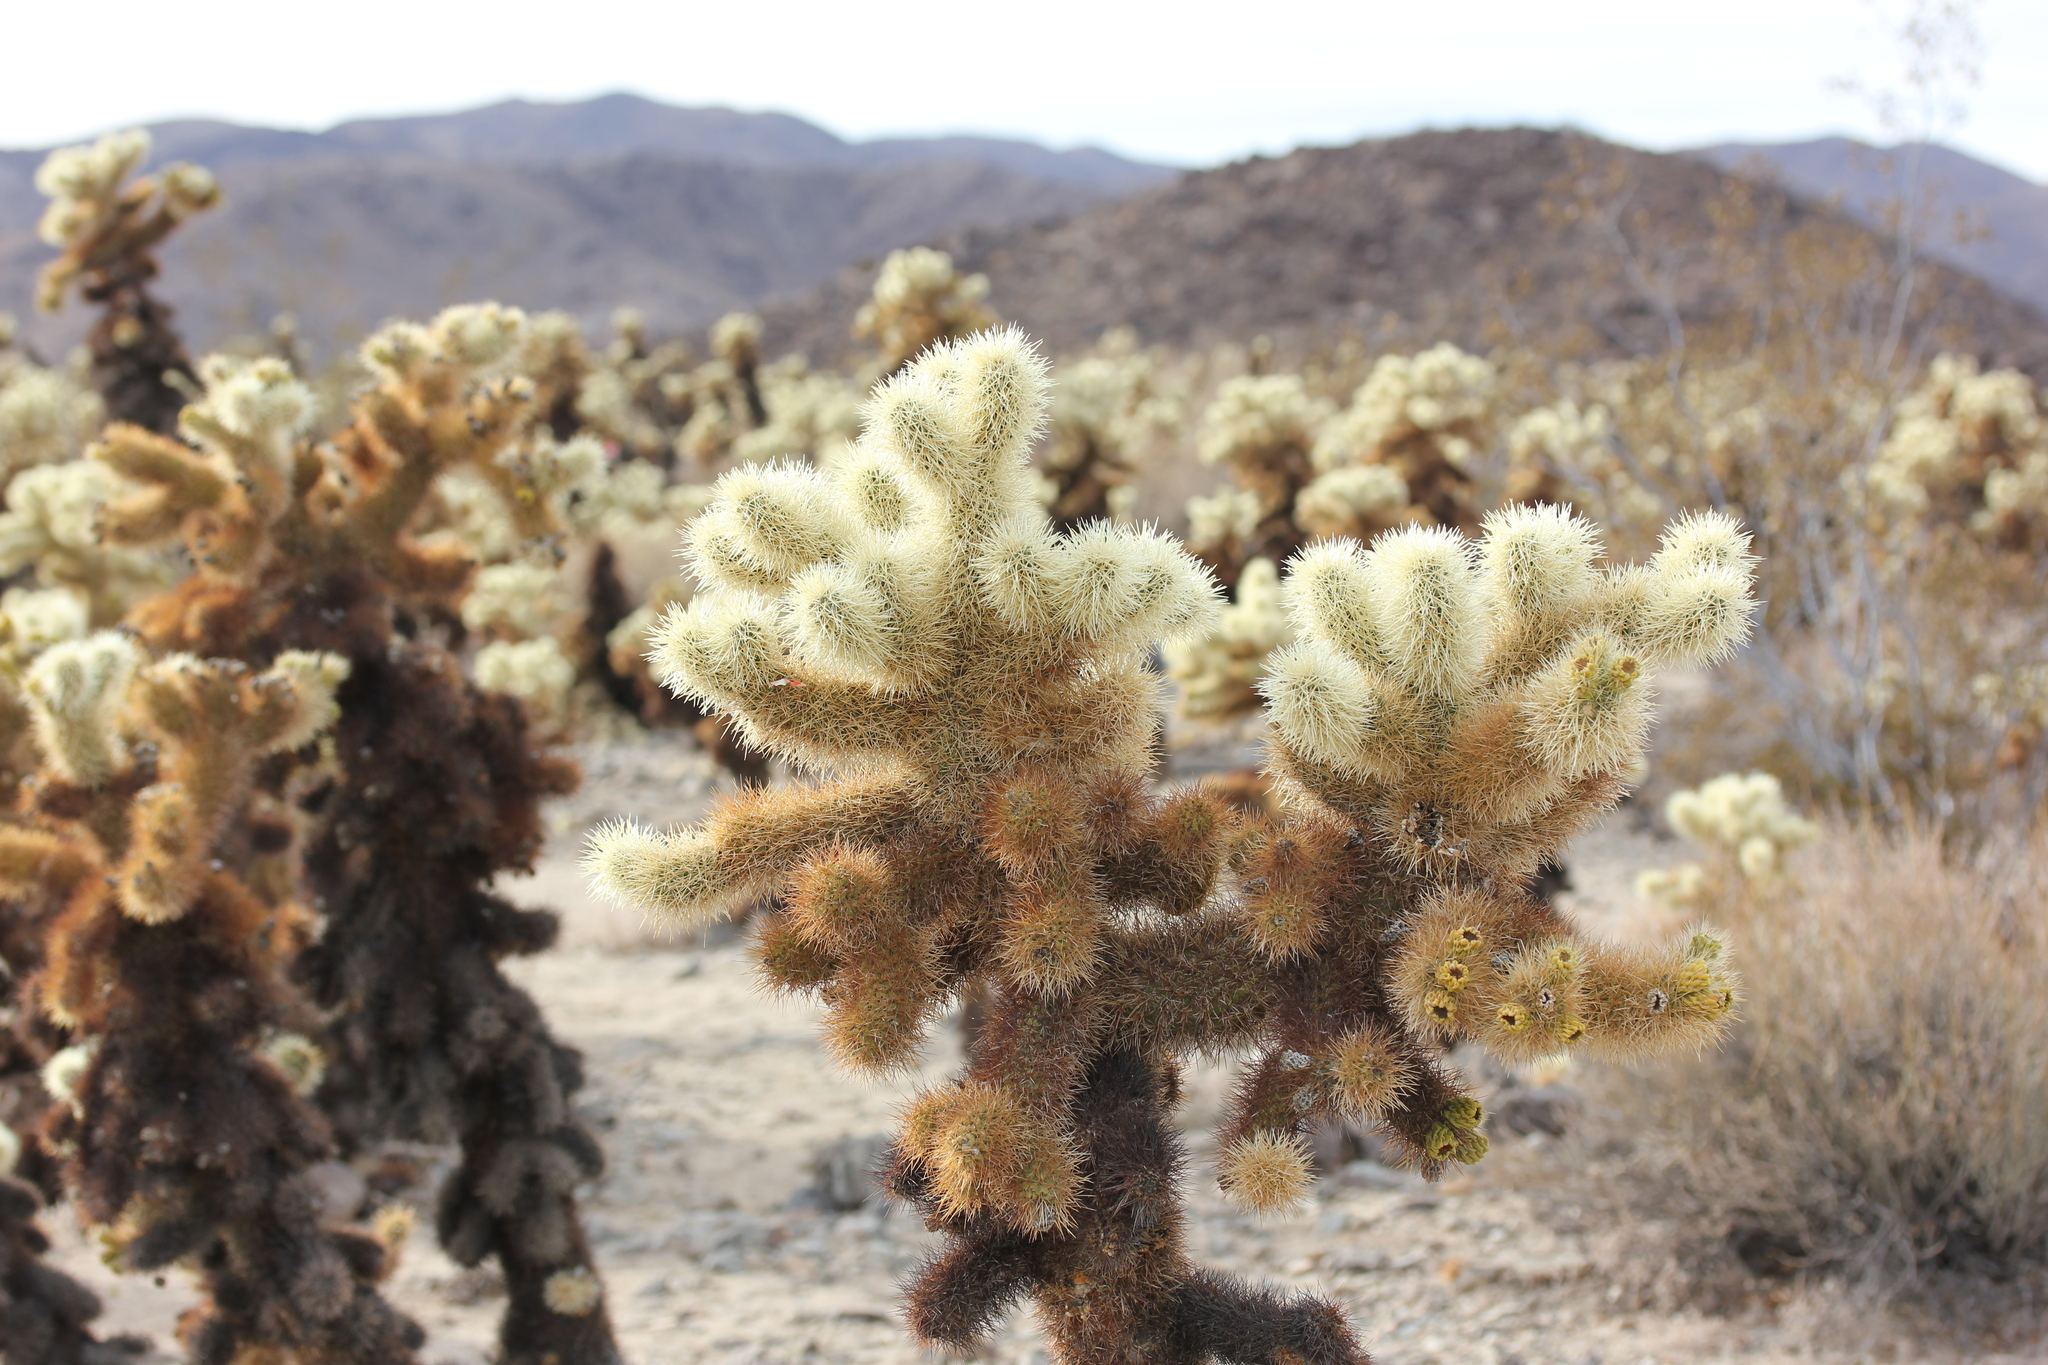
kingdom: Plantae
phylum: Tracheophyta
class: Magnoliopsida
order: Caryophyllales
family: Cactaceae
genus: Cylindropuntia
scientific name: Cylindropuntia fosbergii
